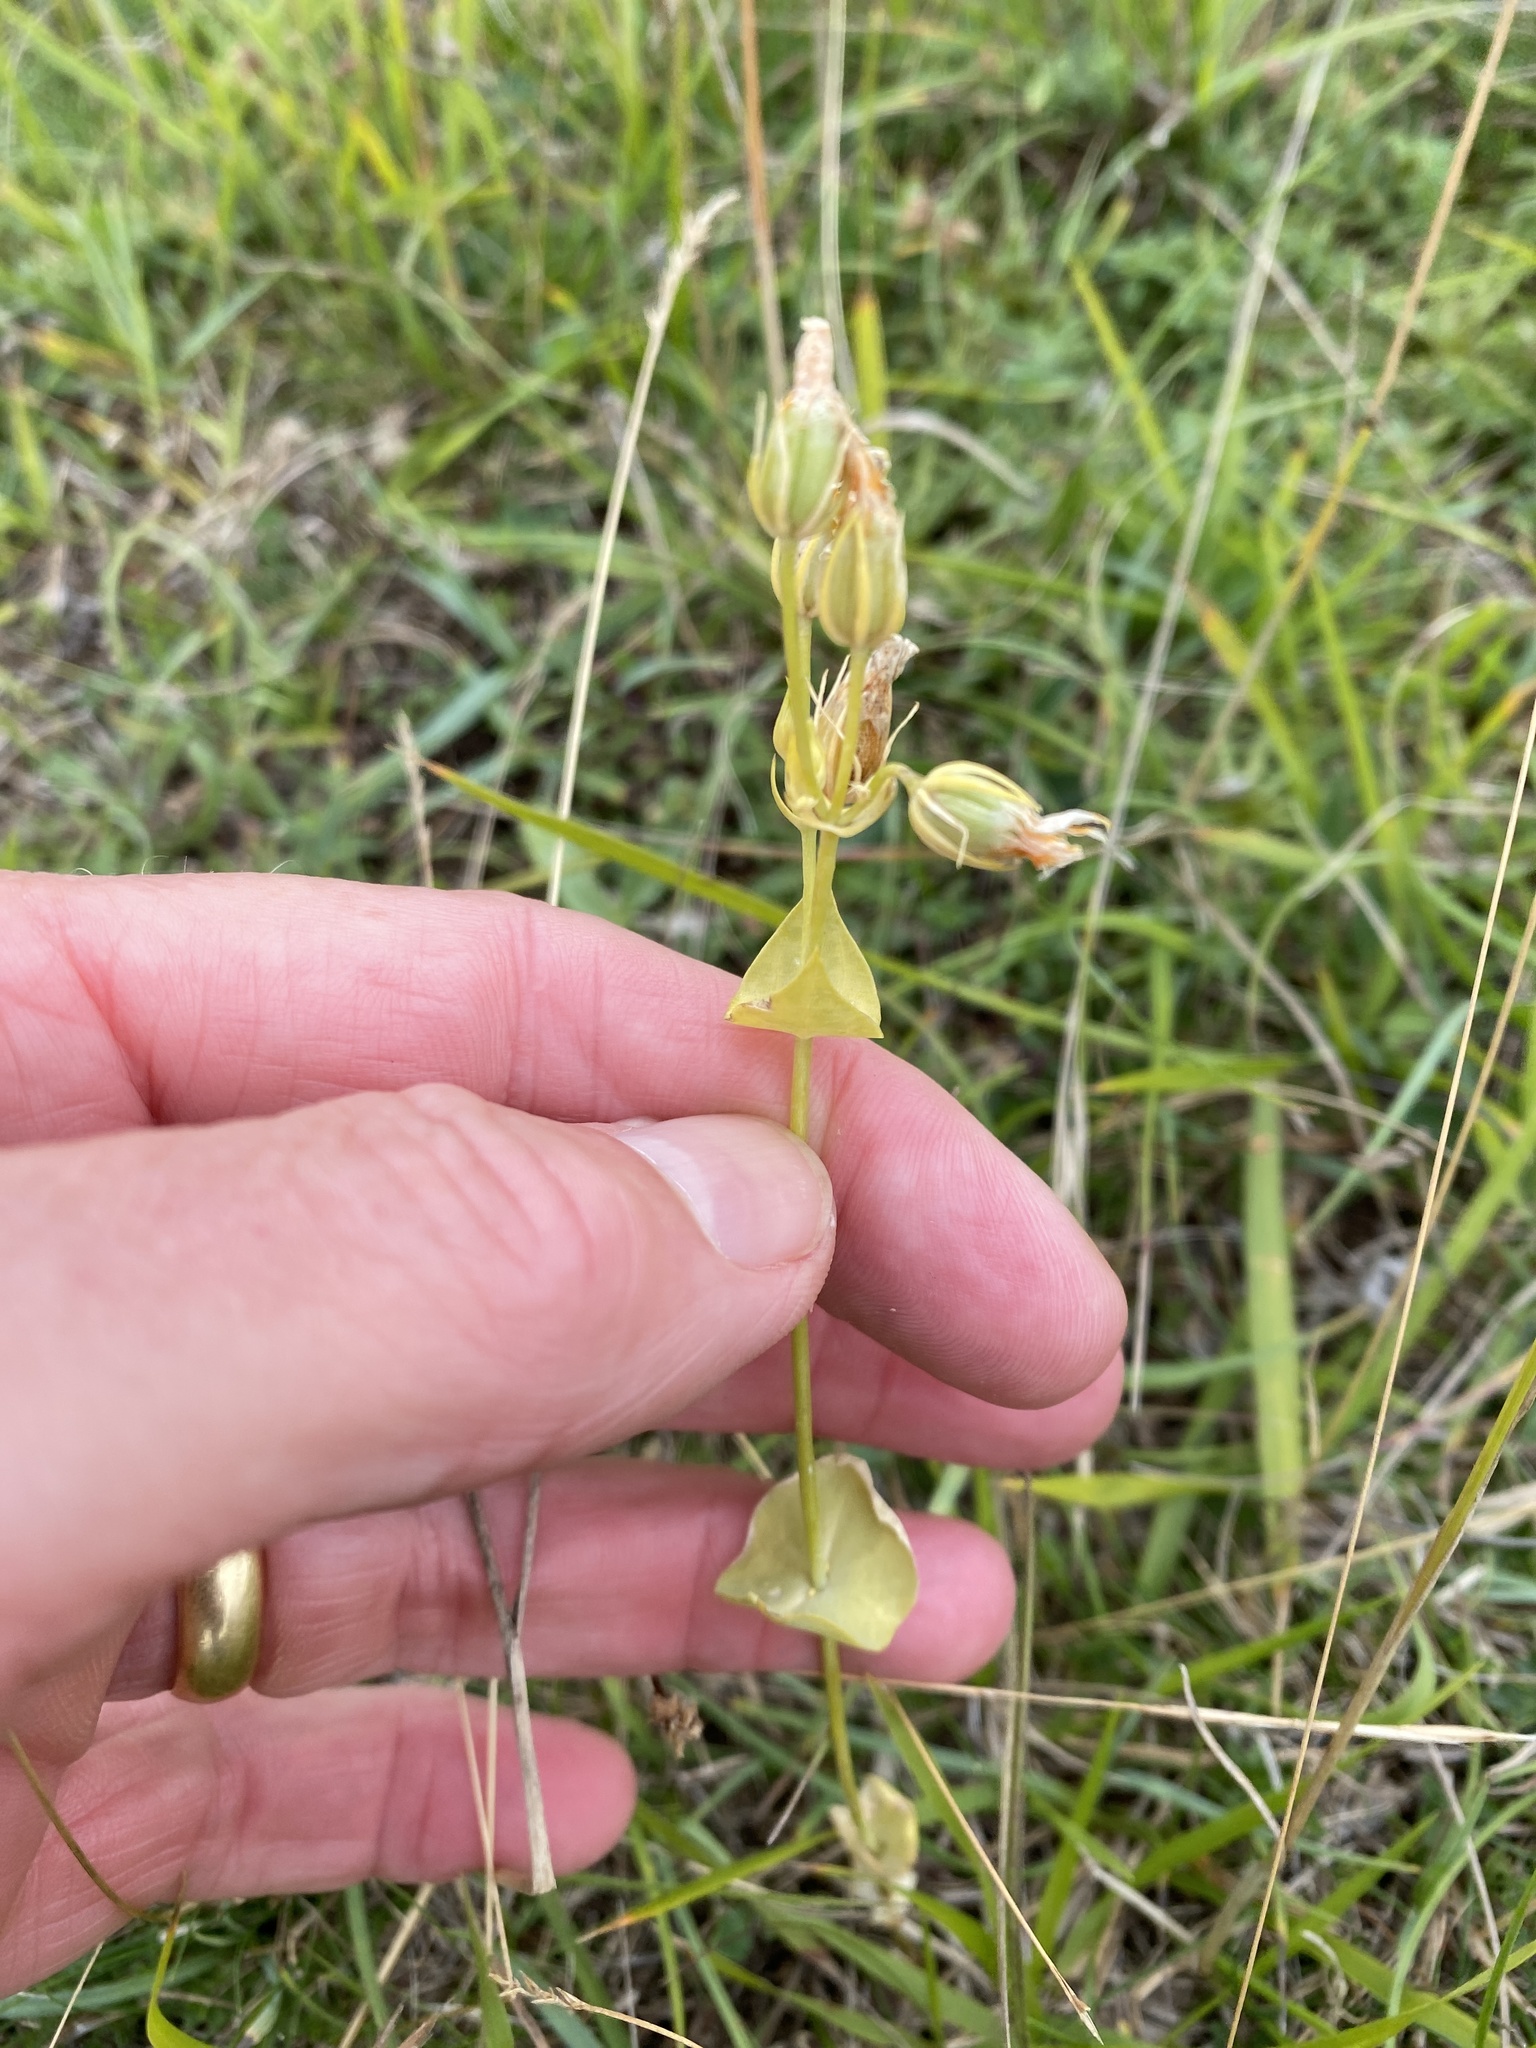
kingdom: Plantae
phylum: Tracheophyta
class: Magnoliopsida
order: Gentianales
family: Gentianaceae
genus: Blackstonia
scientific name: Blackstonia perfoliata
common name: Yellow-wort
